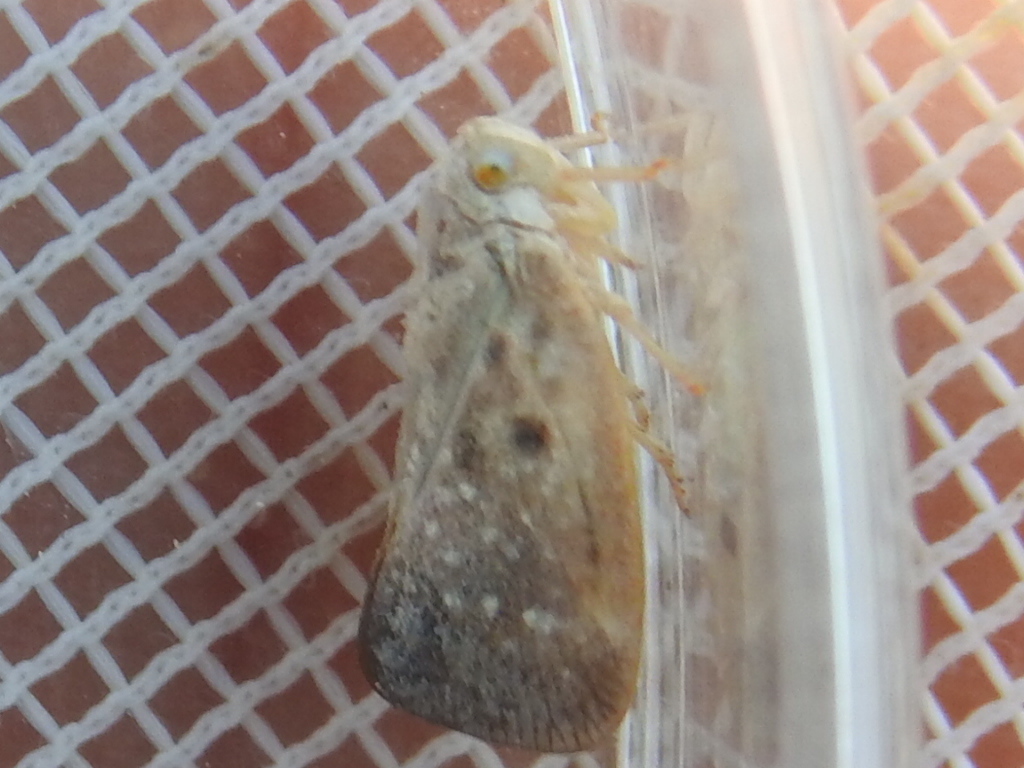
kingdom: Animalia
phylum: Arthropoda
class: Insecta
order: Hemiptera
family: Flatidae
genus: Metcalfa
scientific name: Metcalfa pruinosa
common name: Citrus flatid planthopper
